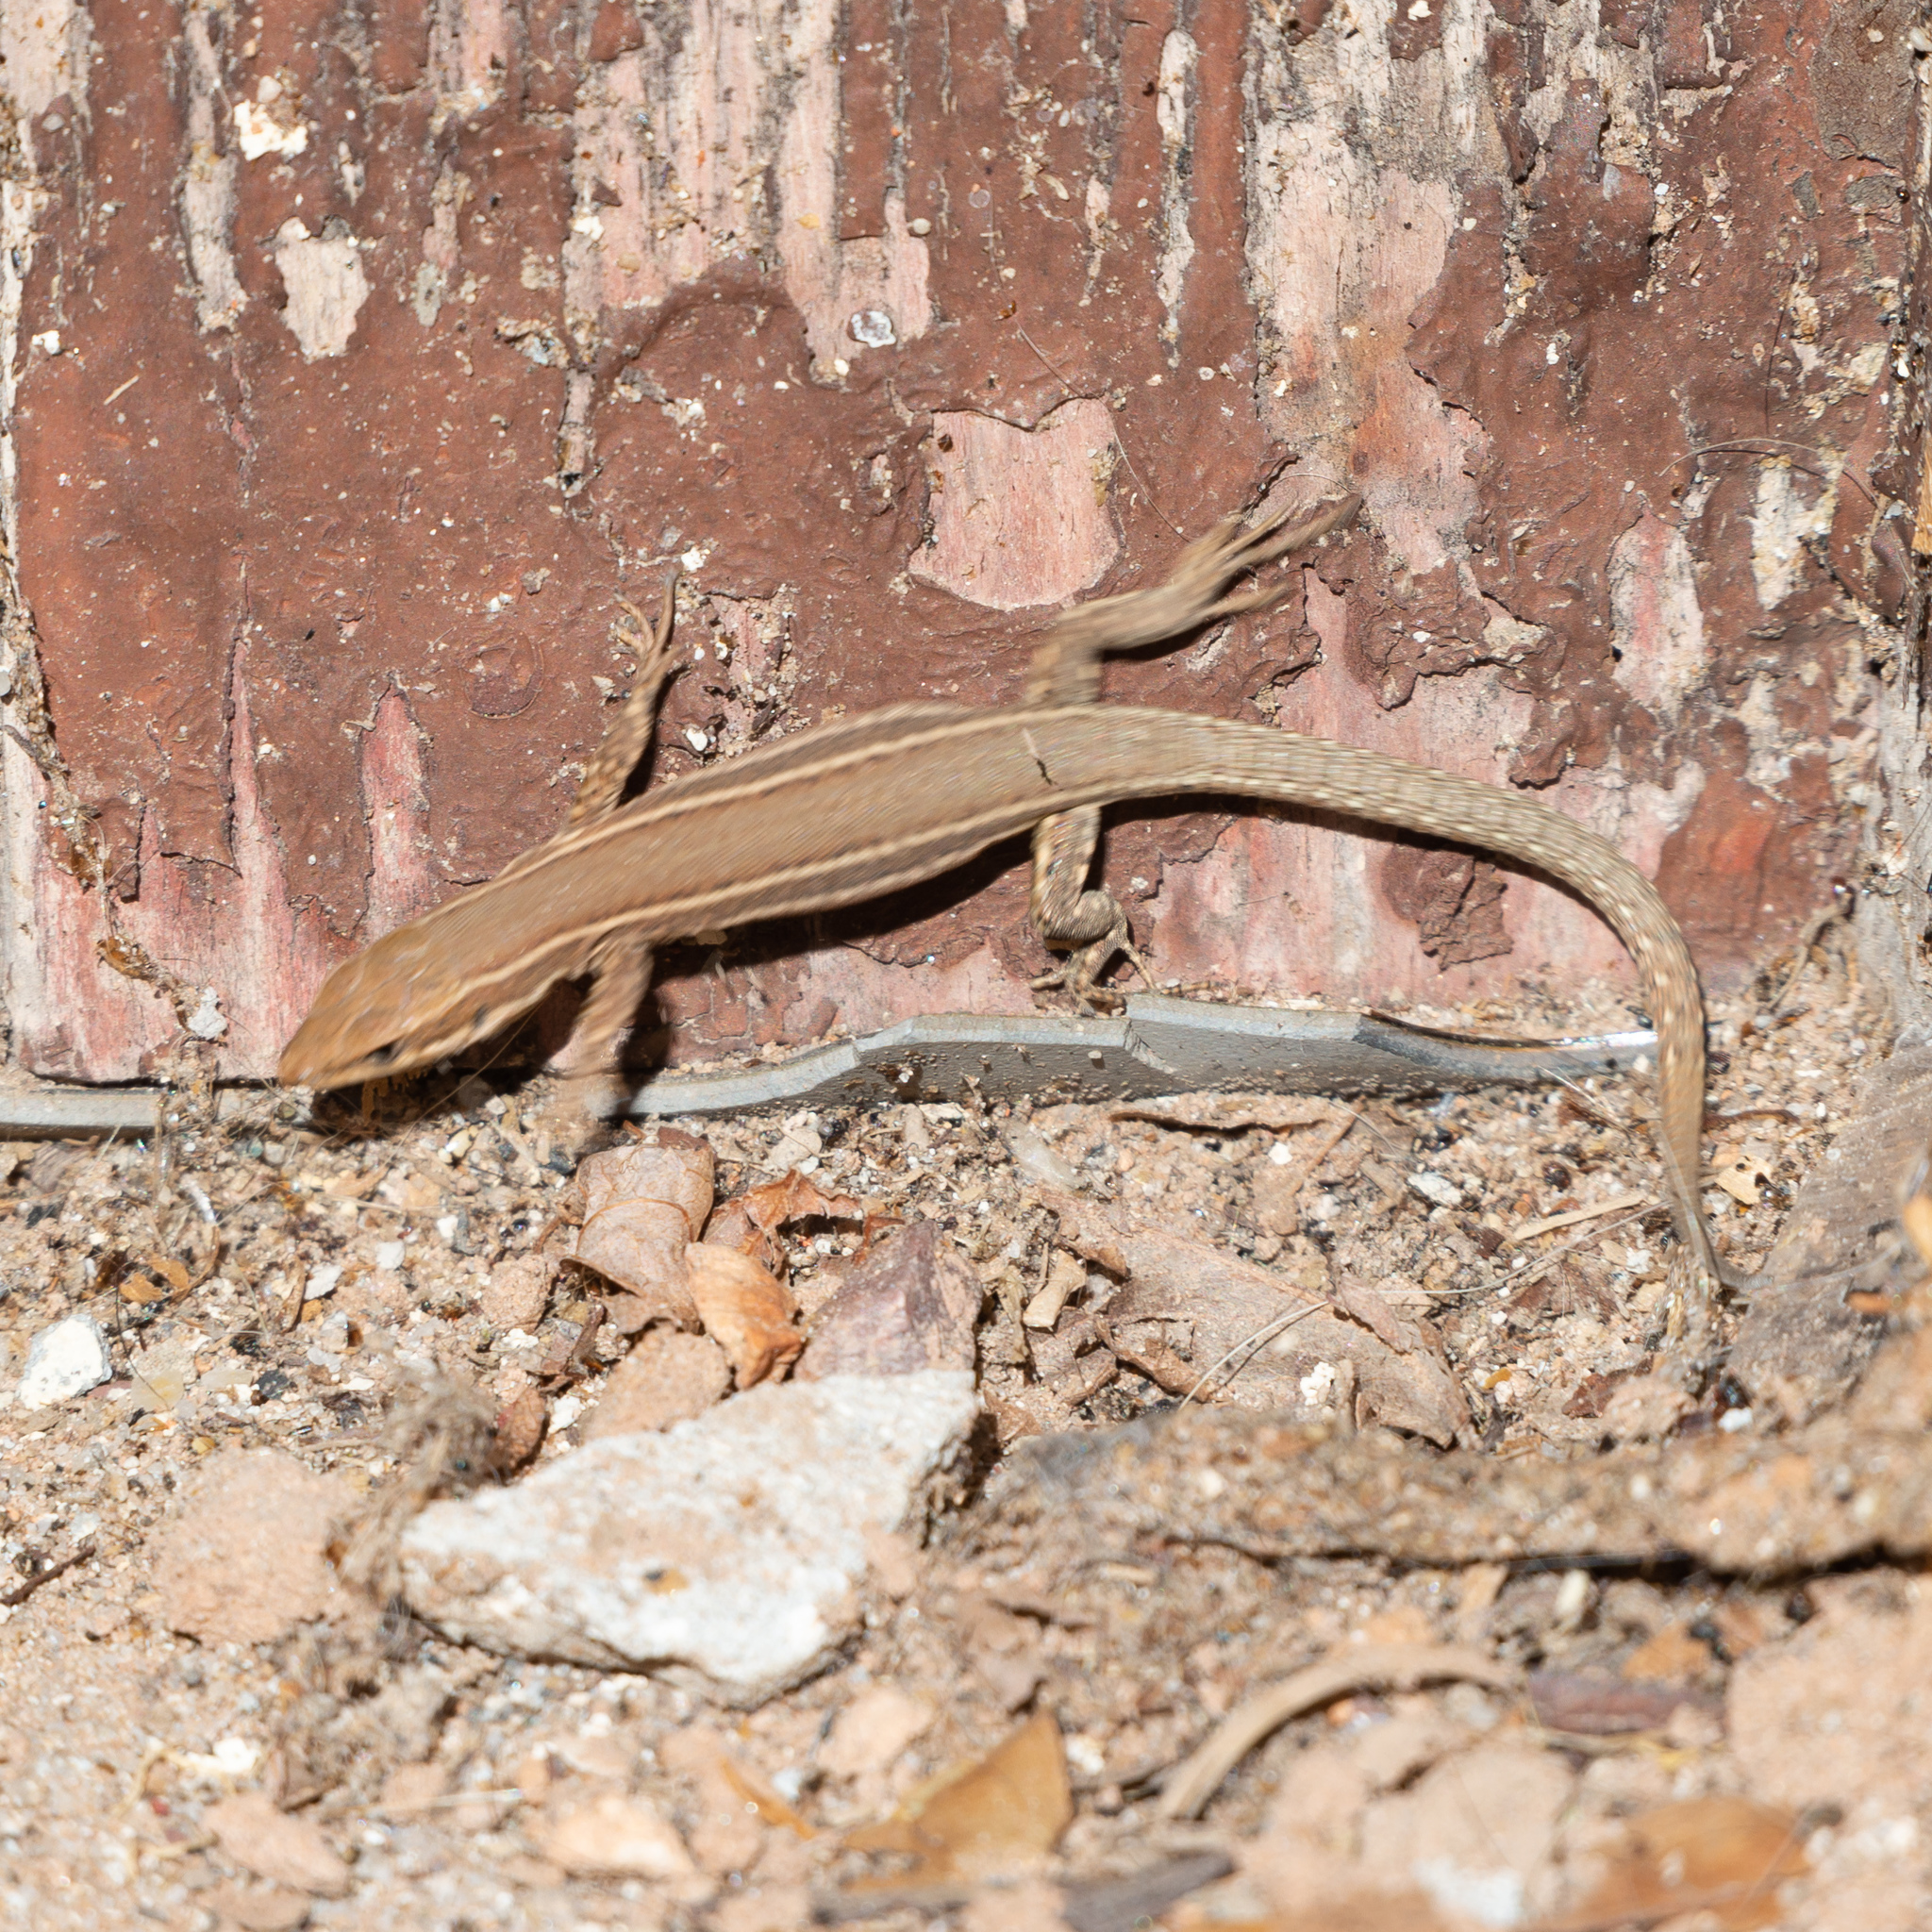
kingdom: Animalia
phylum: Chordata
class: Squamata
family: Lacertidae
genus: Podarcis
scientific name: Podarcis liolepis
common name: Catalonian wall lizard
